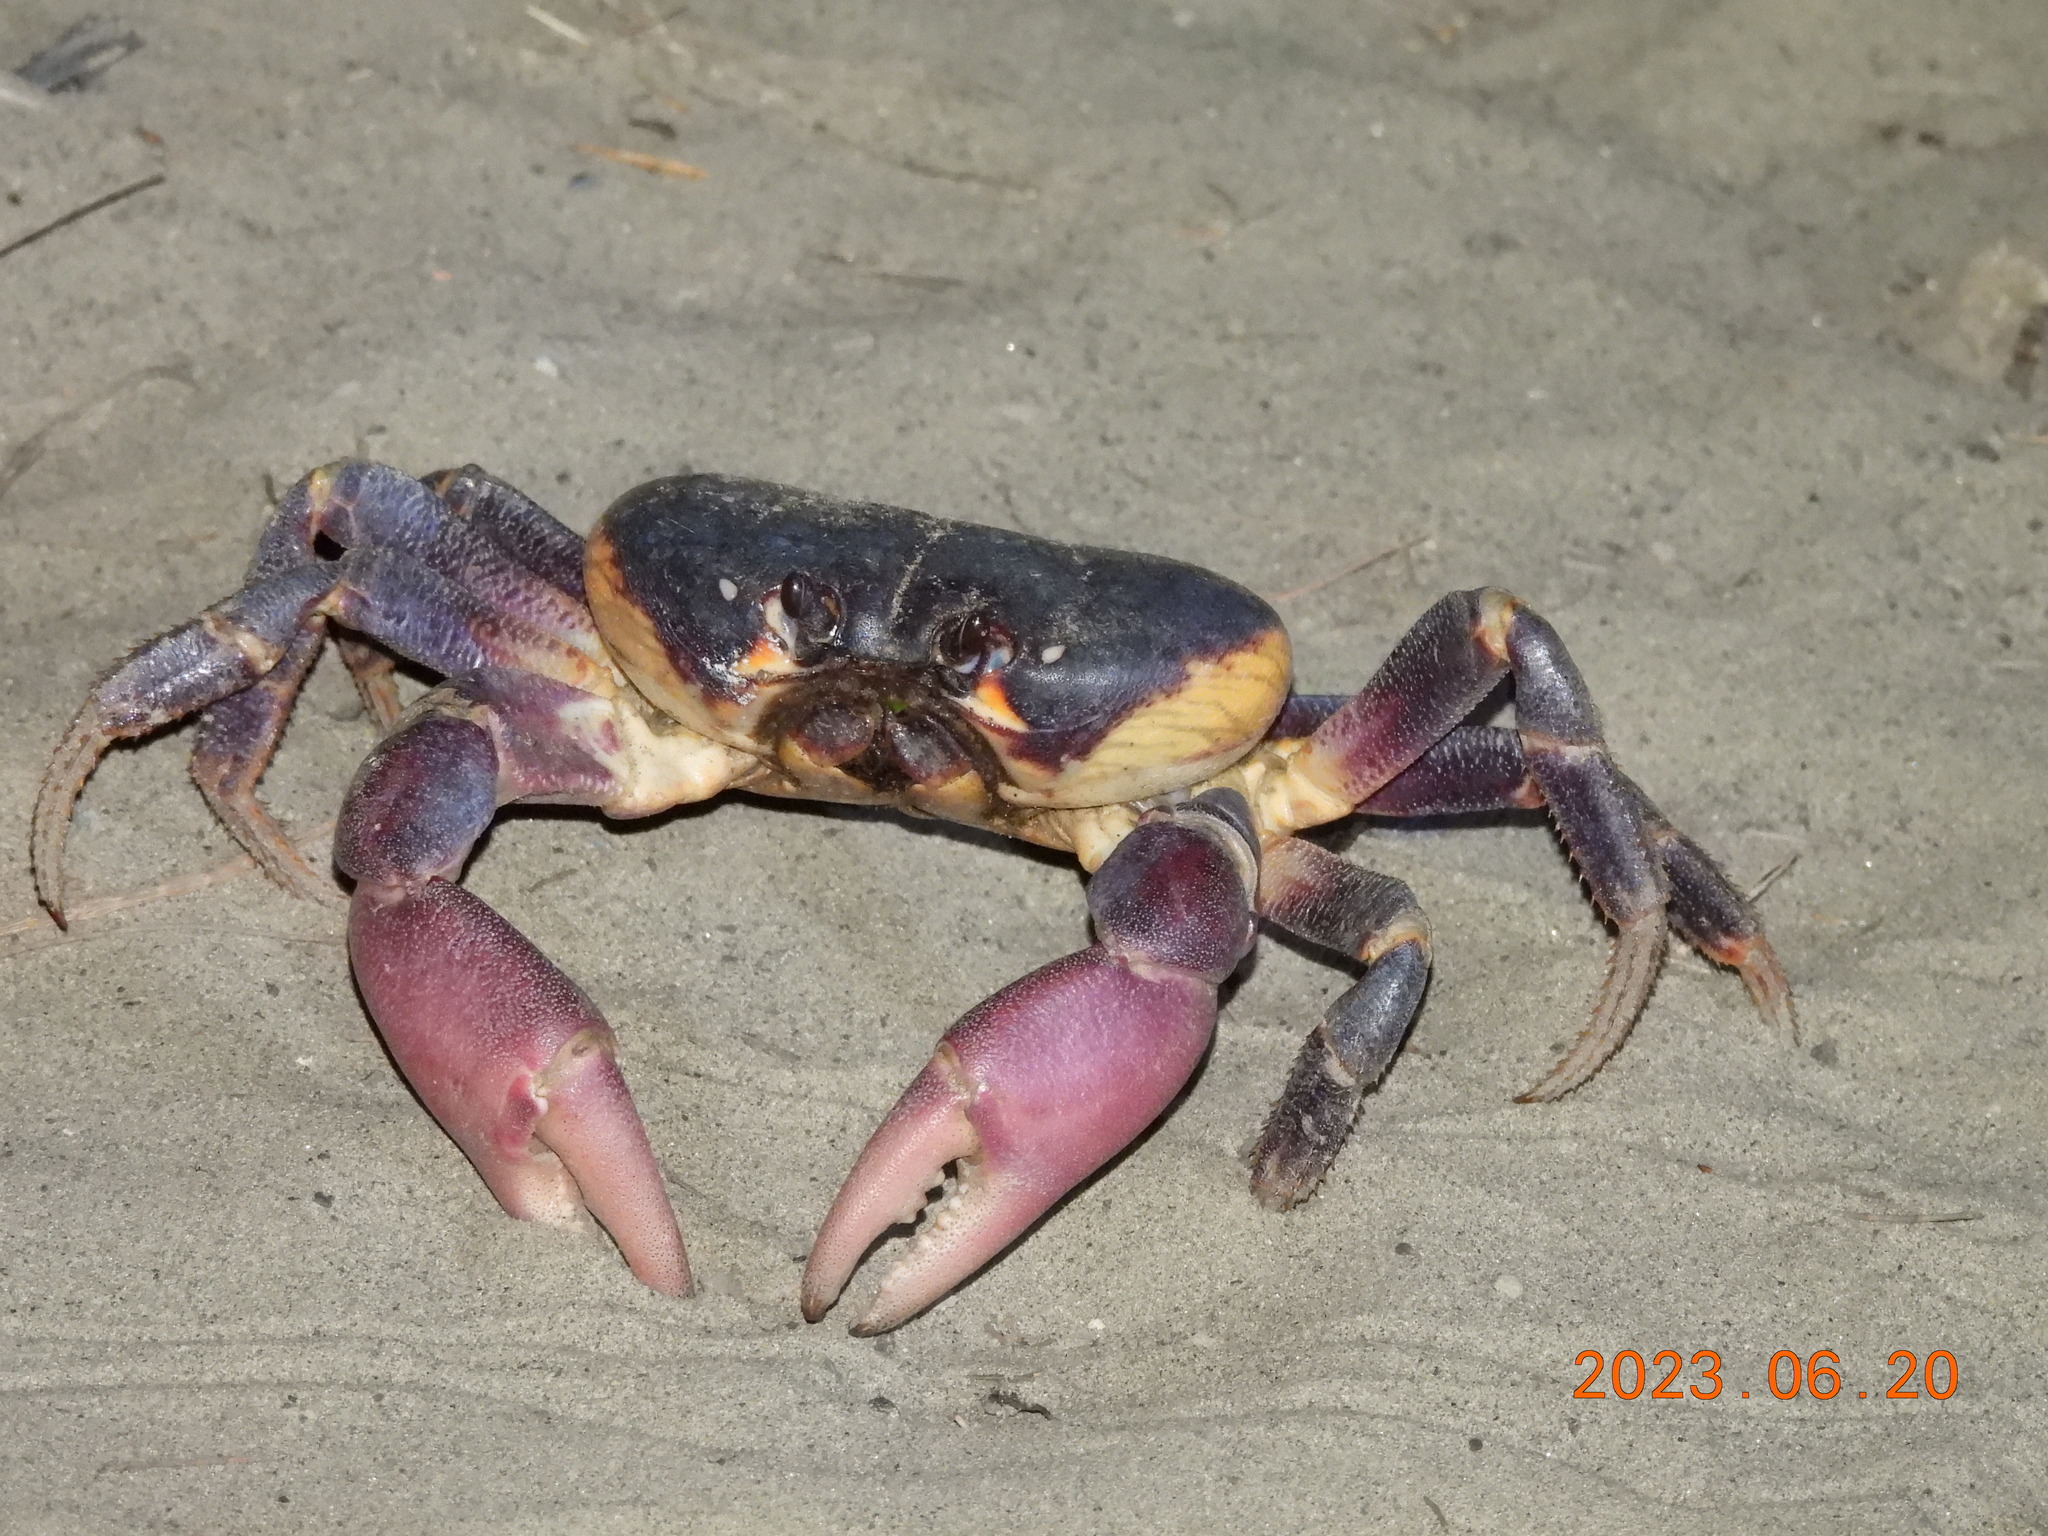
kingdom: Animalia
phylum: Arthropoda
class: Malacostraca
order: Decapoda
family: Gecarcinidae
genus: Gecarcoidea
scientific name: Gecarcoidea lalandii
